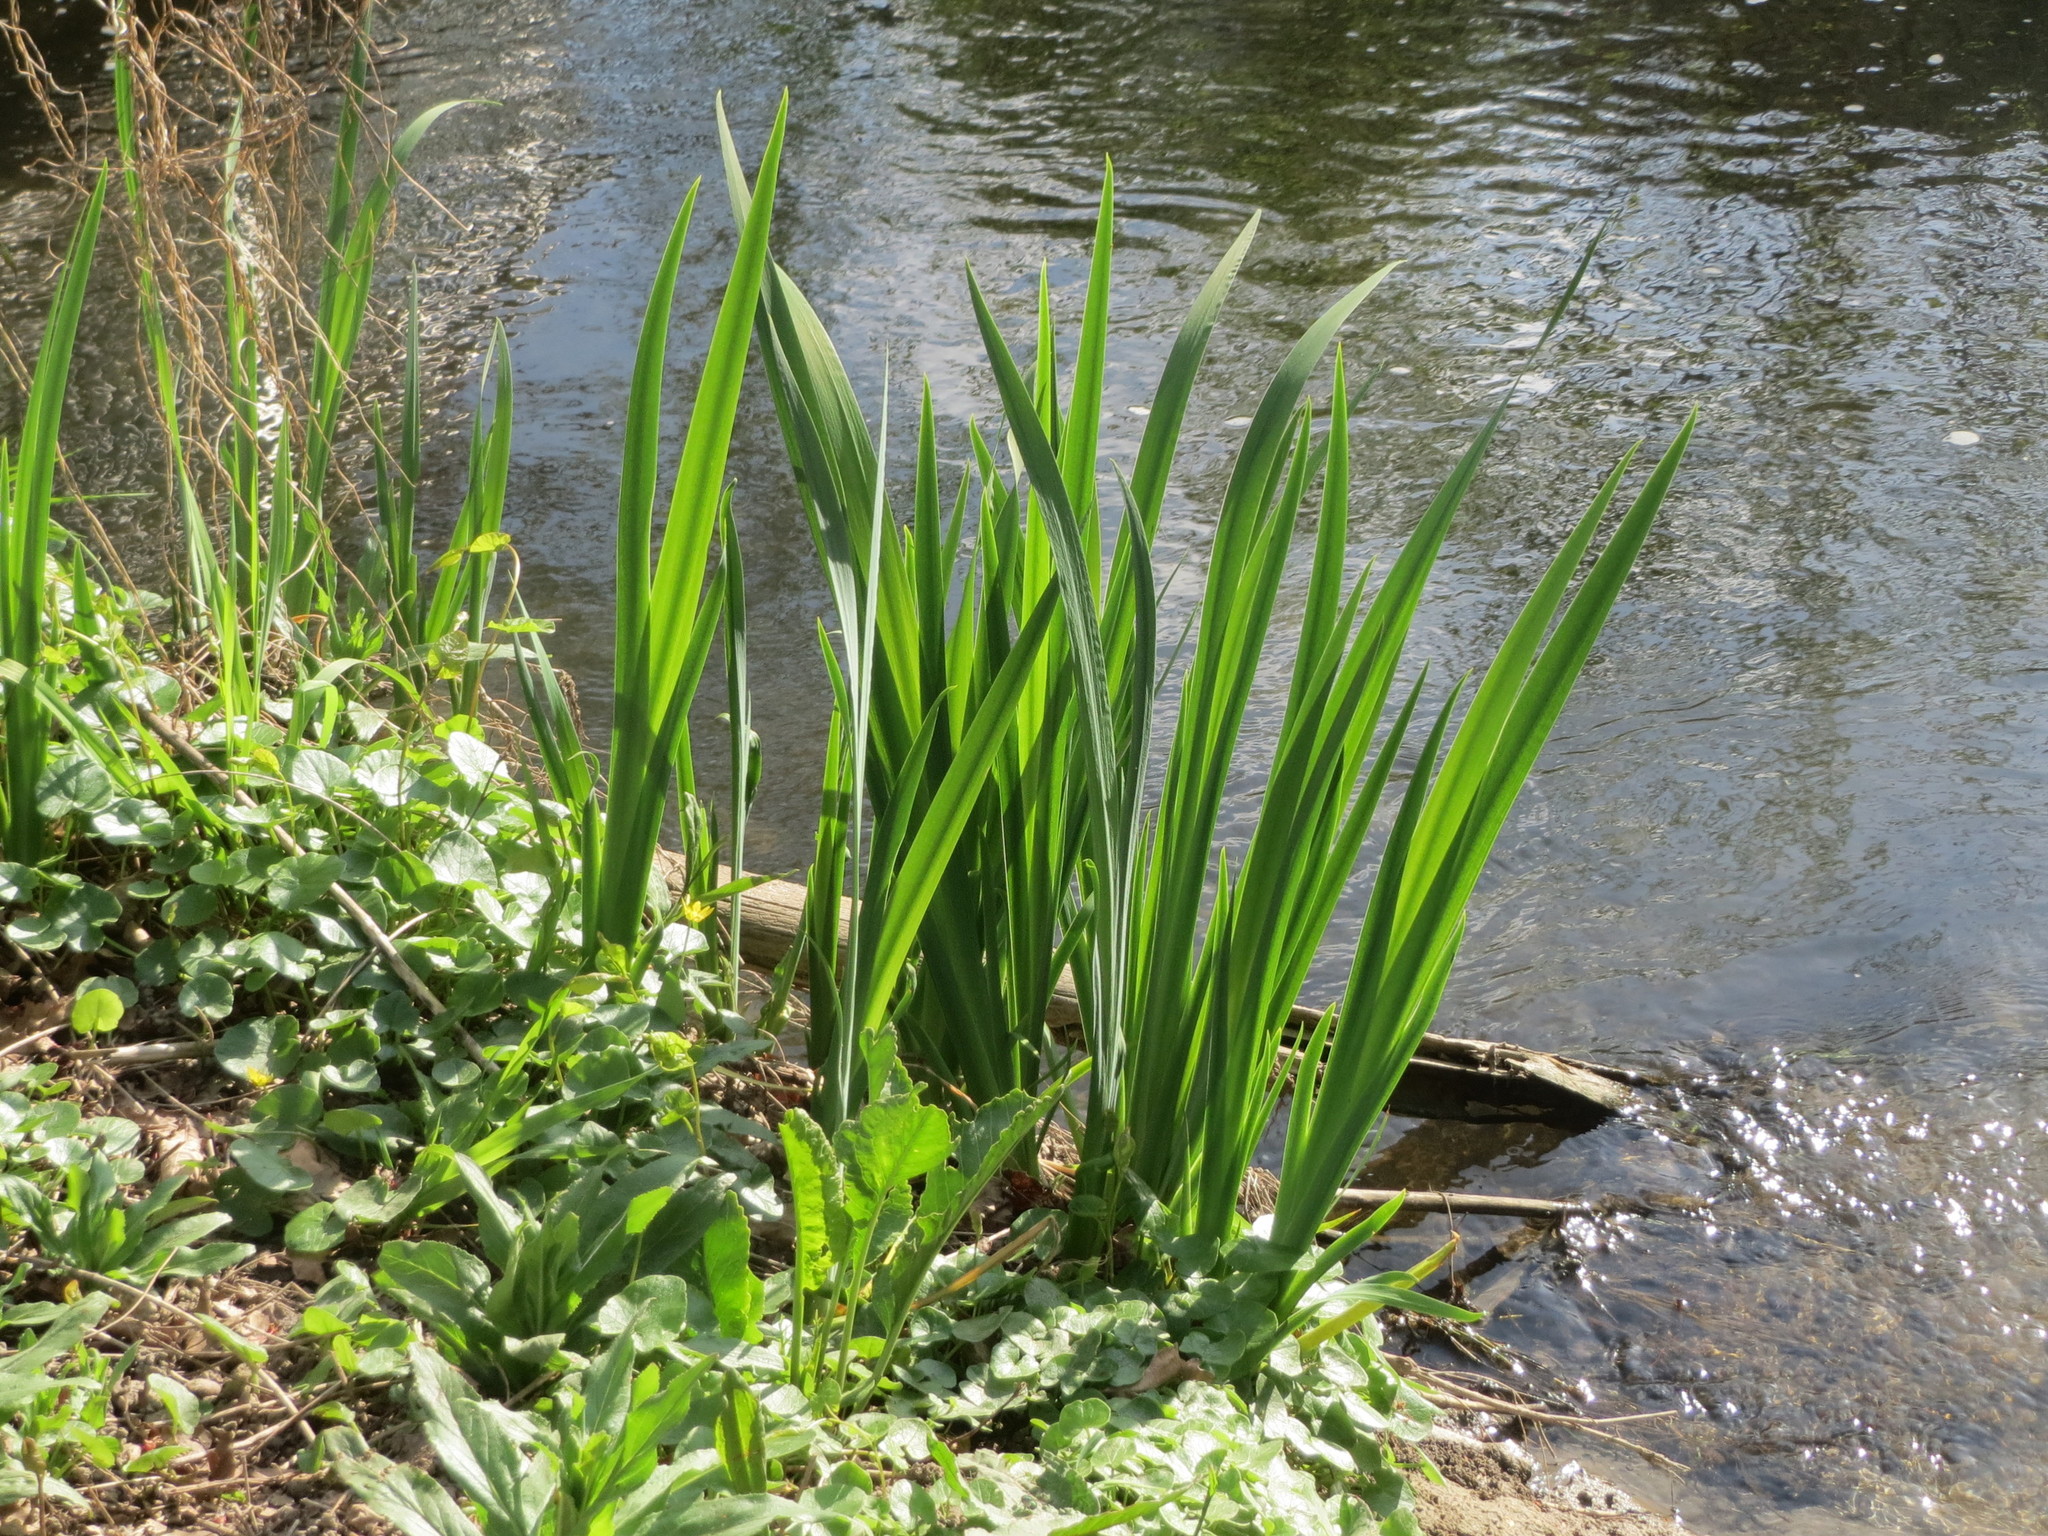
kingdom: Plantae
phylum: Tracheophyta
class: Liliopsida
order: Asparagales
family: Iridaceae
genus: Iris
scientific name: Iris pseudacorus
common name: Yellow flag
